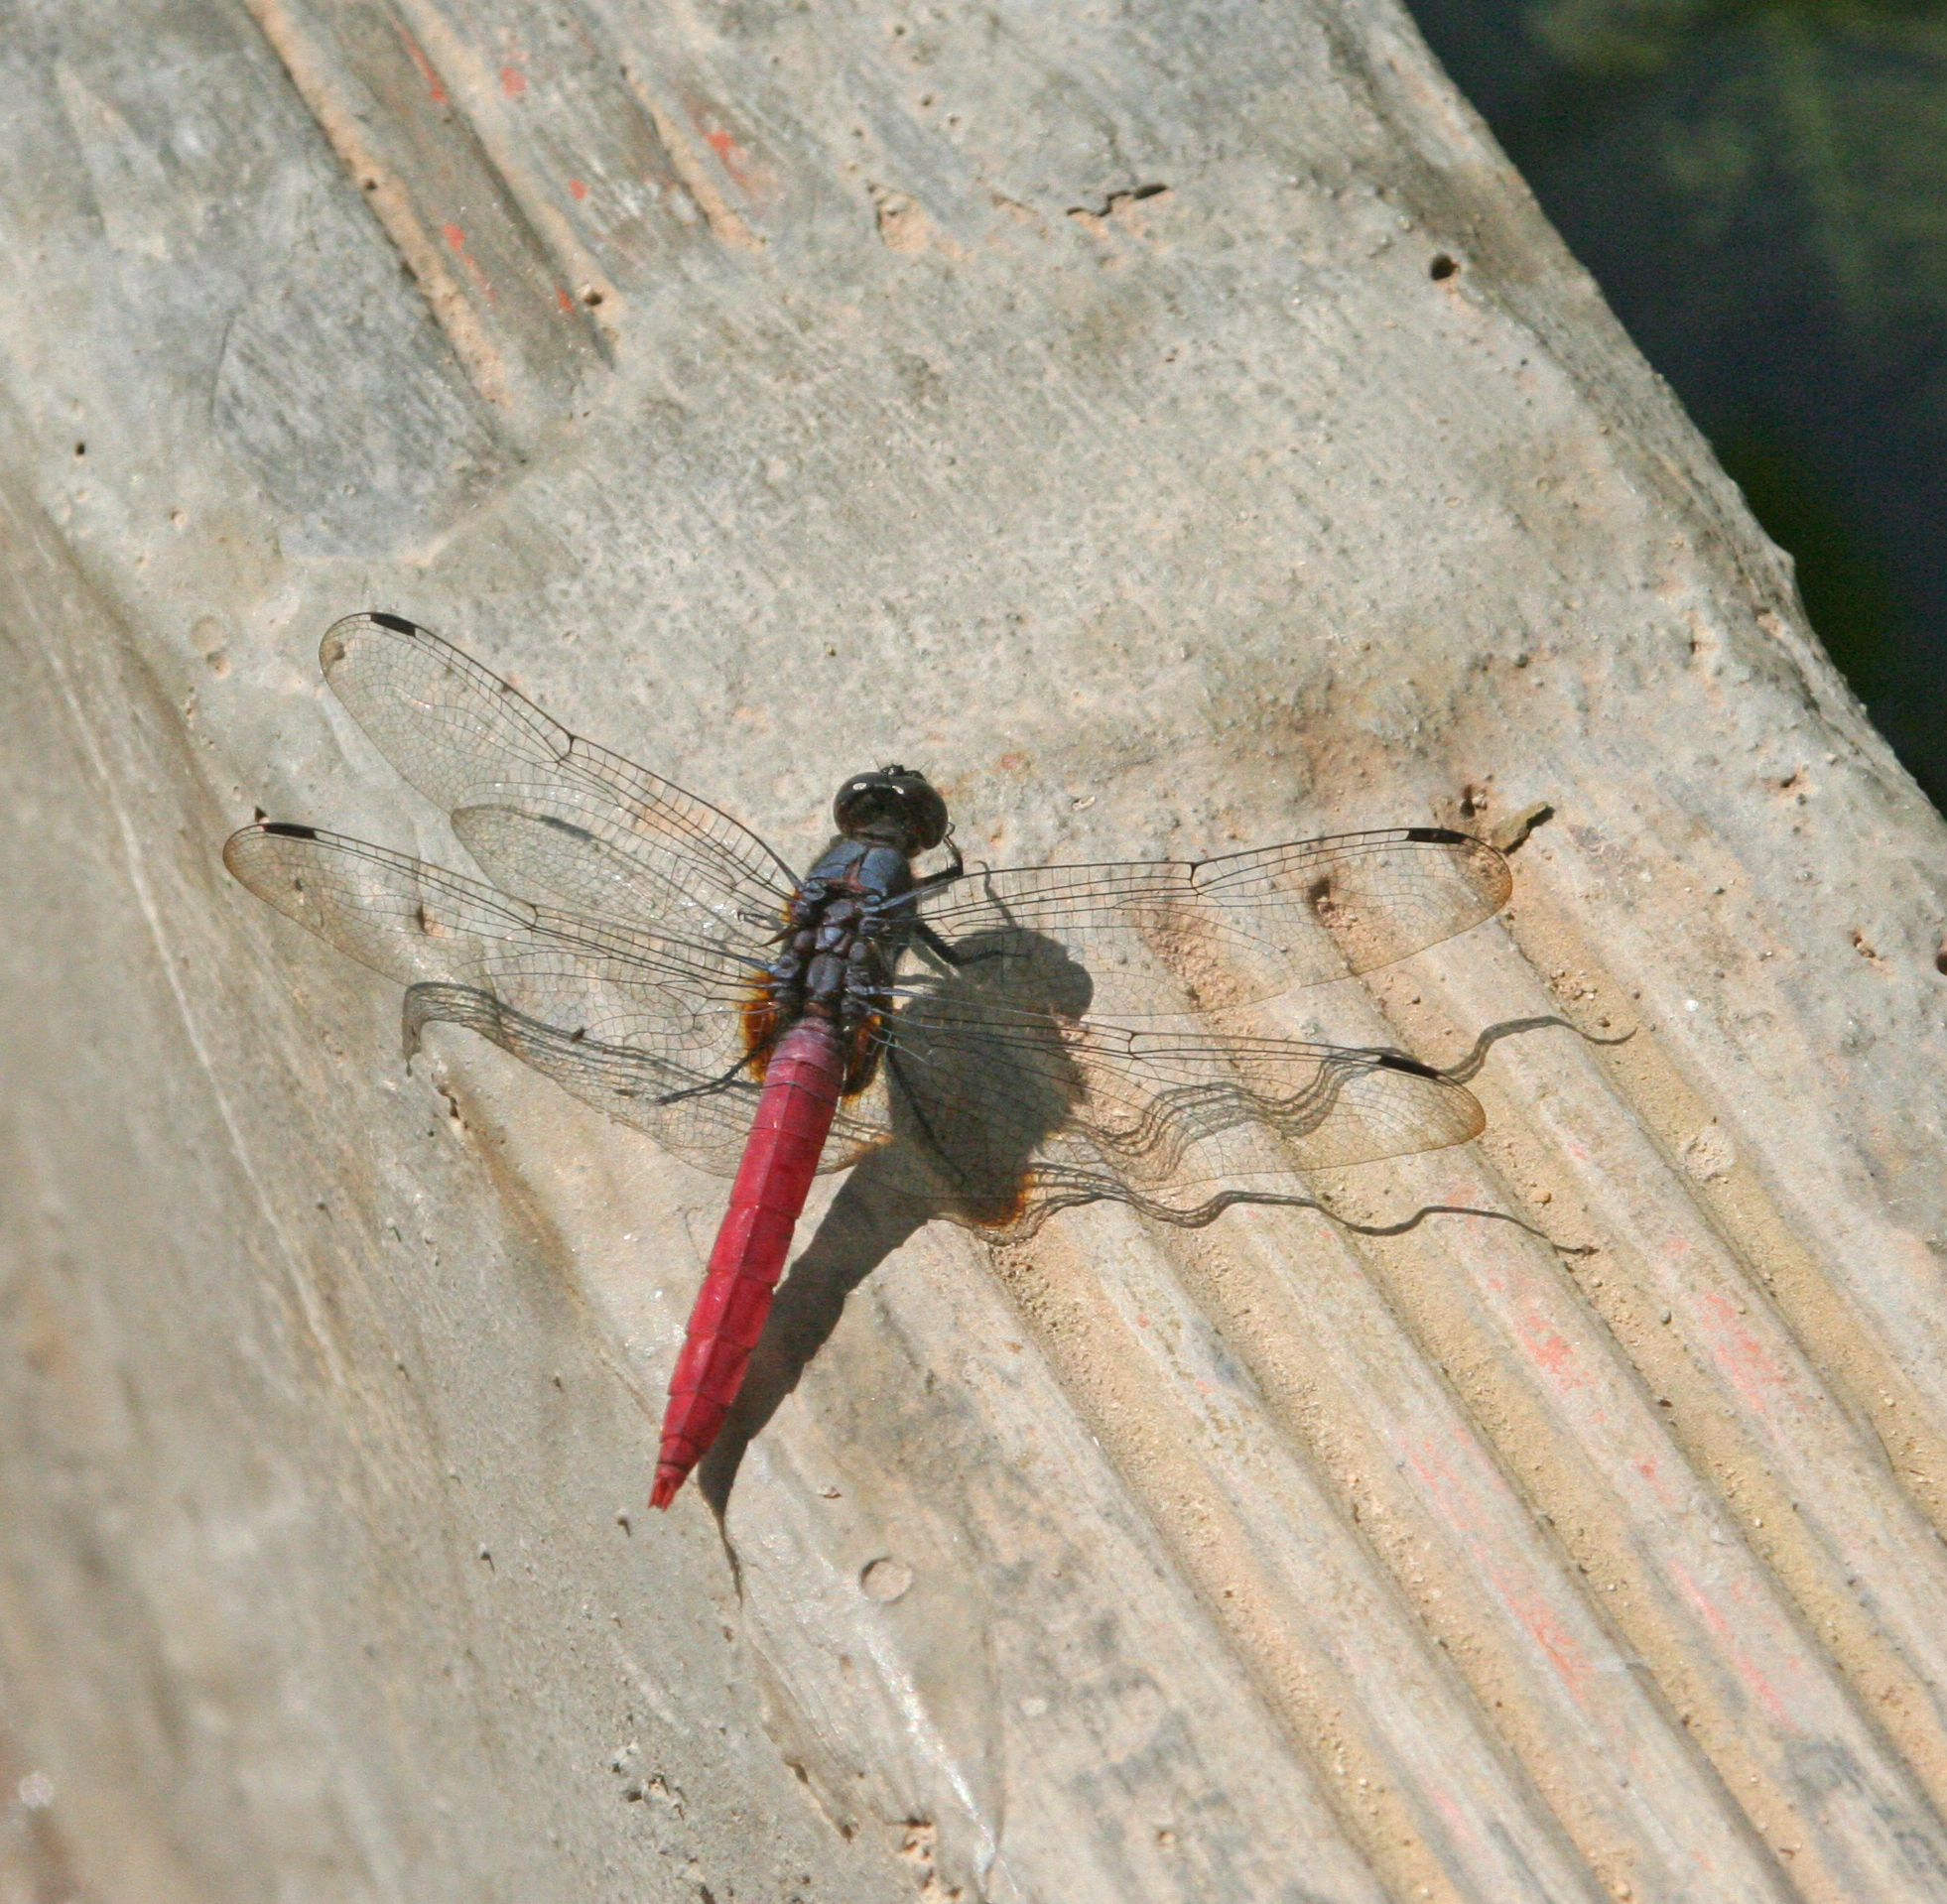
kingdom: Animalia
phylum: Arthropoda
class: Insecta
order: Odonata
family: Libellulidae
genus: Orthetrum
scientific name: Orthetrum pruinosum
